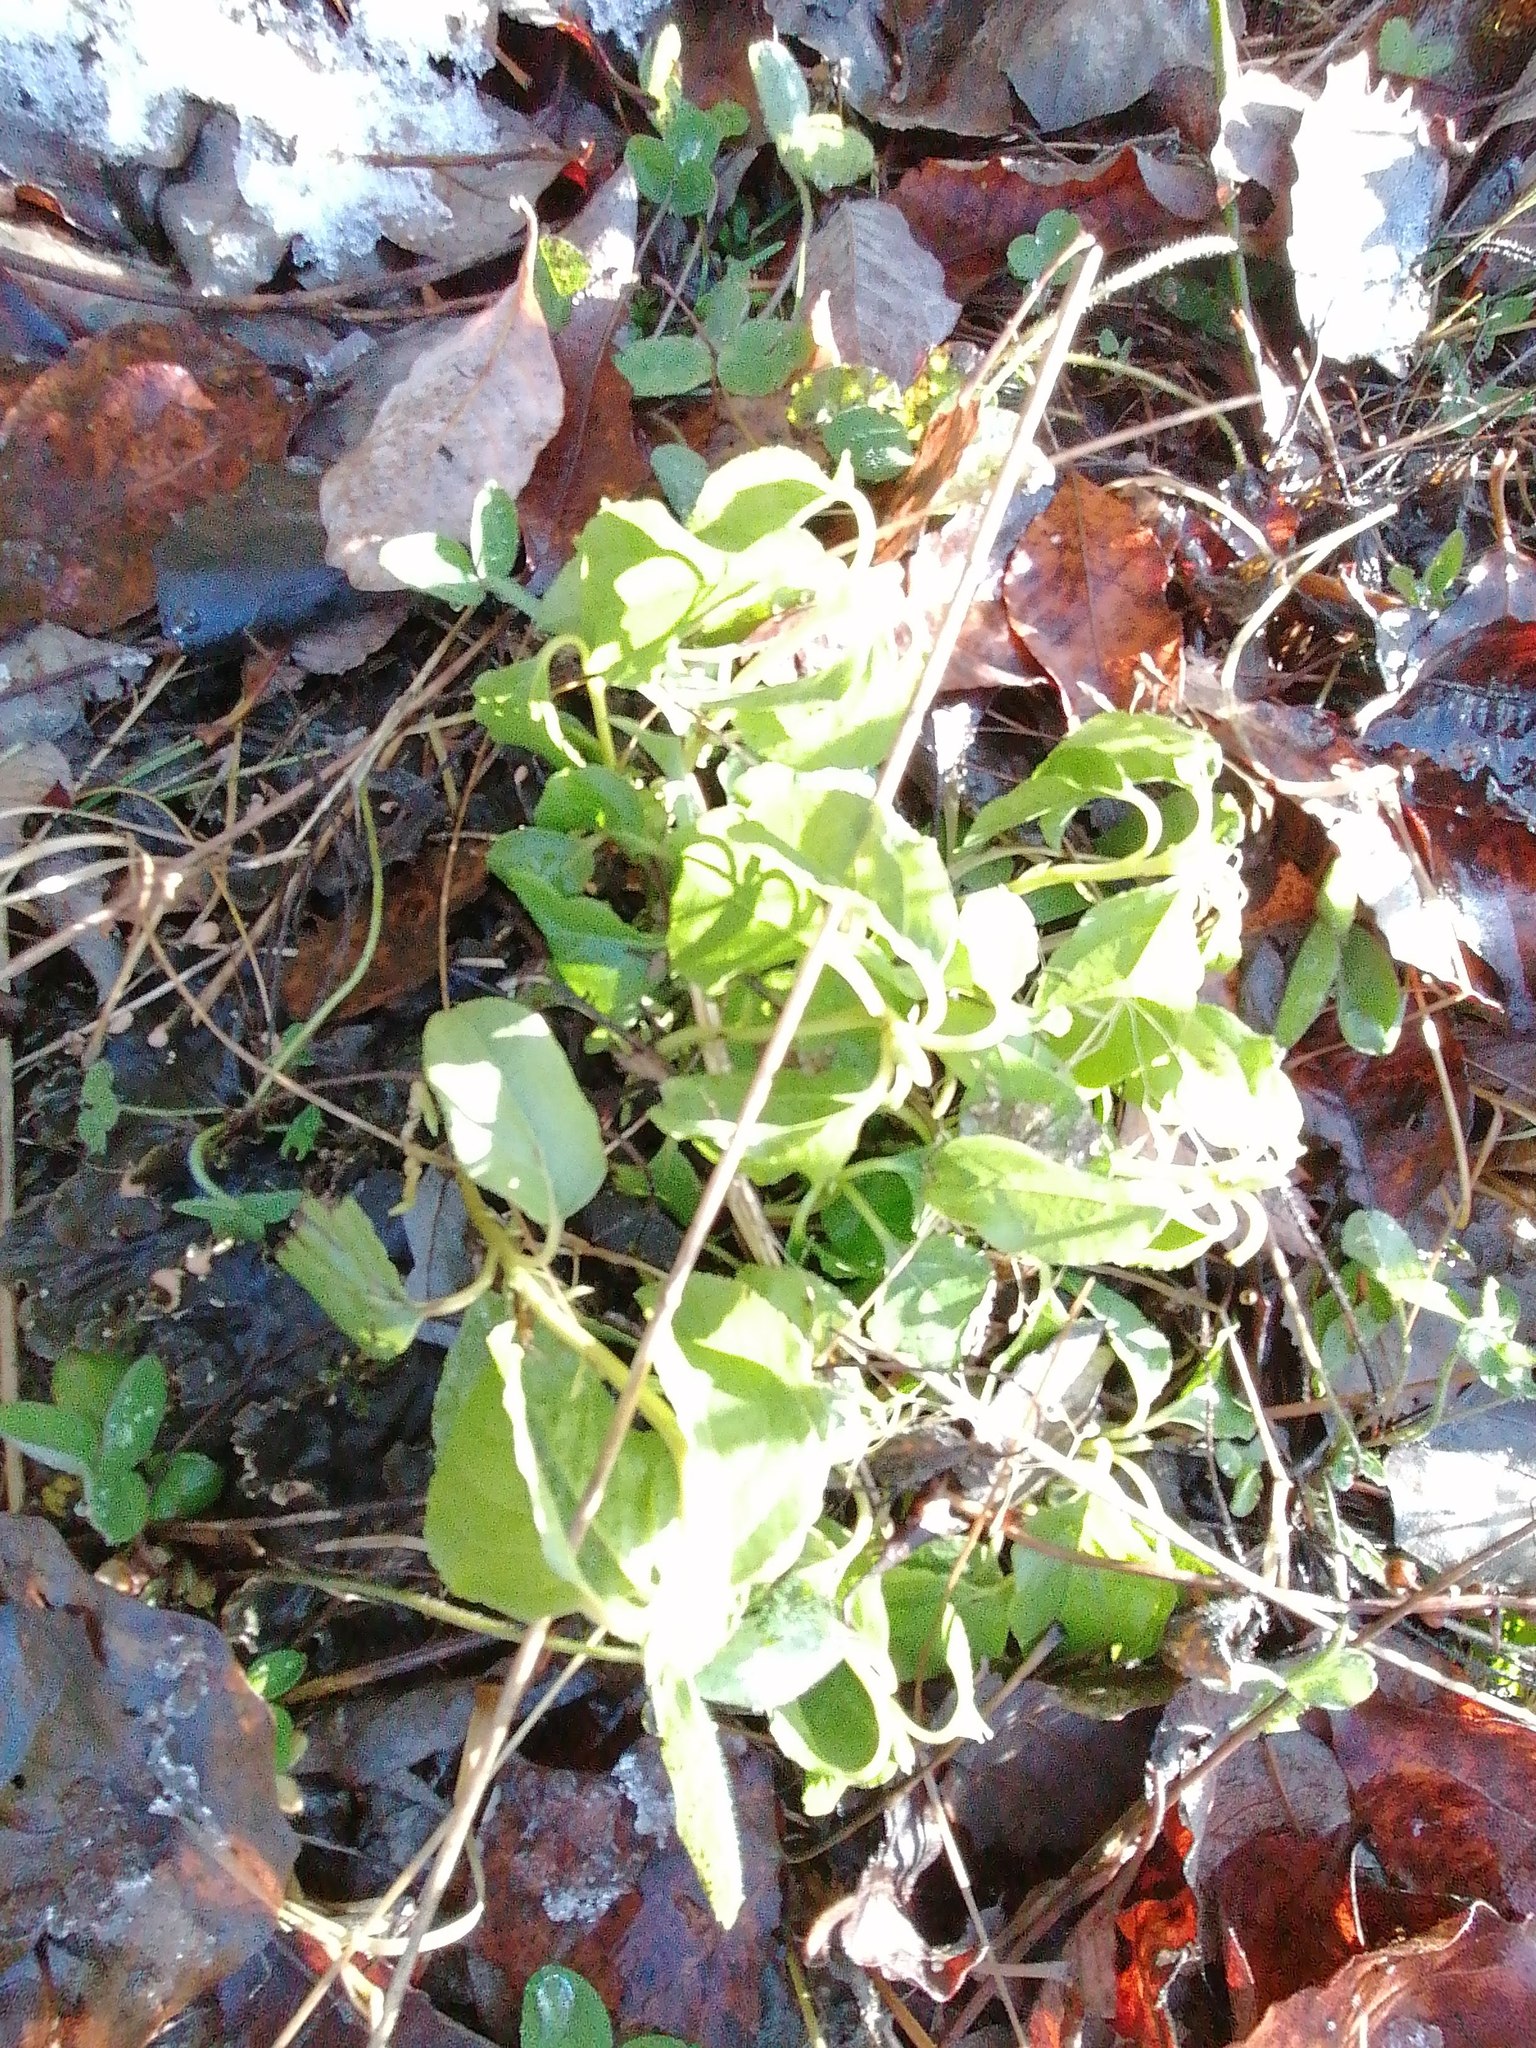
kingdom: Plantae
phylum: Tracheophyta
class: Magnoliopsida
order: Ericales
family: Ericaceae
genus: Orthilia
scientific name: Orthilia secunda
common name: One-sided orthilia
